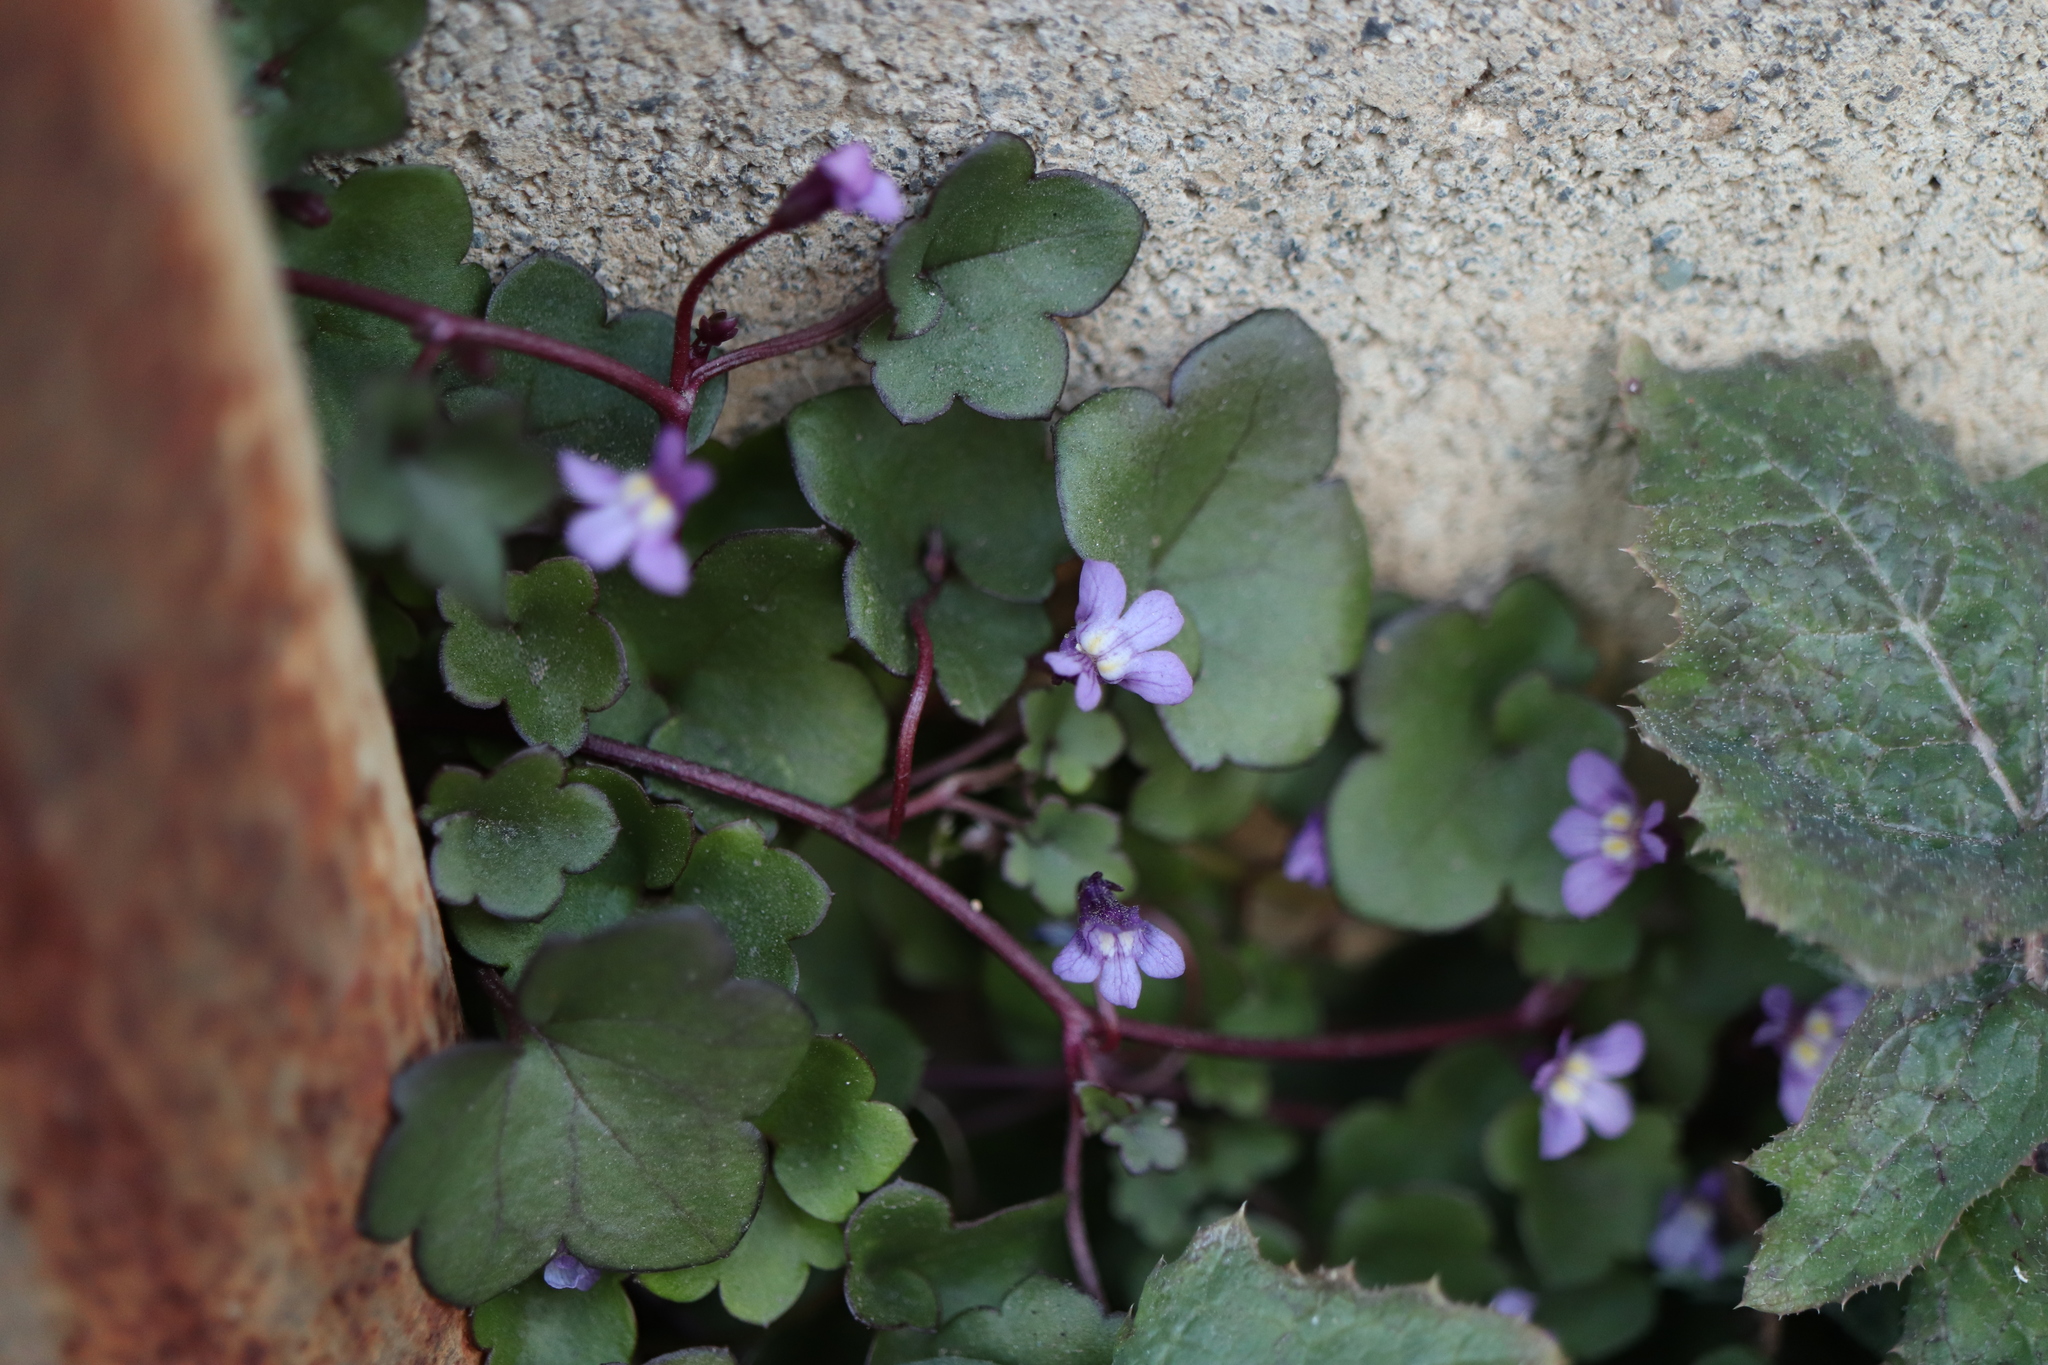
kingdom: Plantae
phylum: Tracheophyta
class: Magnoliopsida
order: Lamiales
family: Plantaginaceae
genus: Cymbalaria
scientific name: Cymbalaria muralis
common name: Ivy-leaved toadflax
